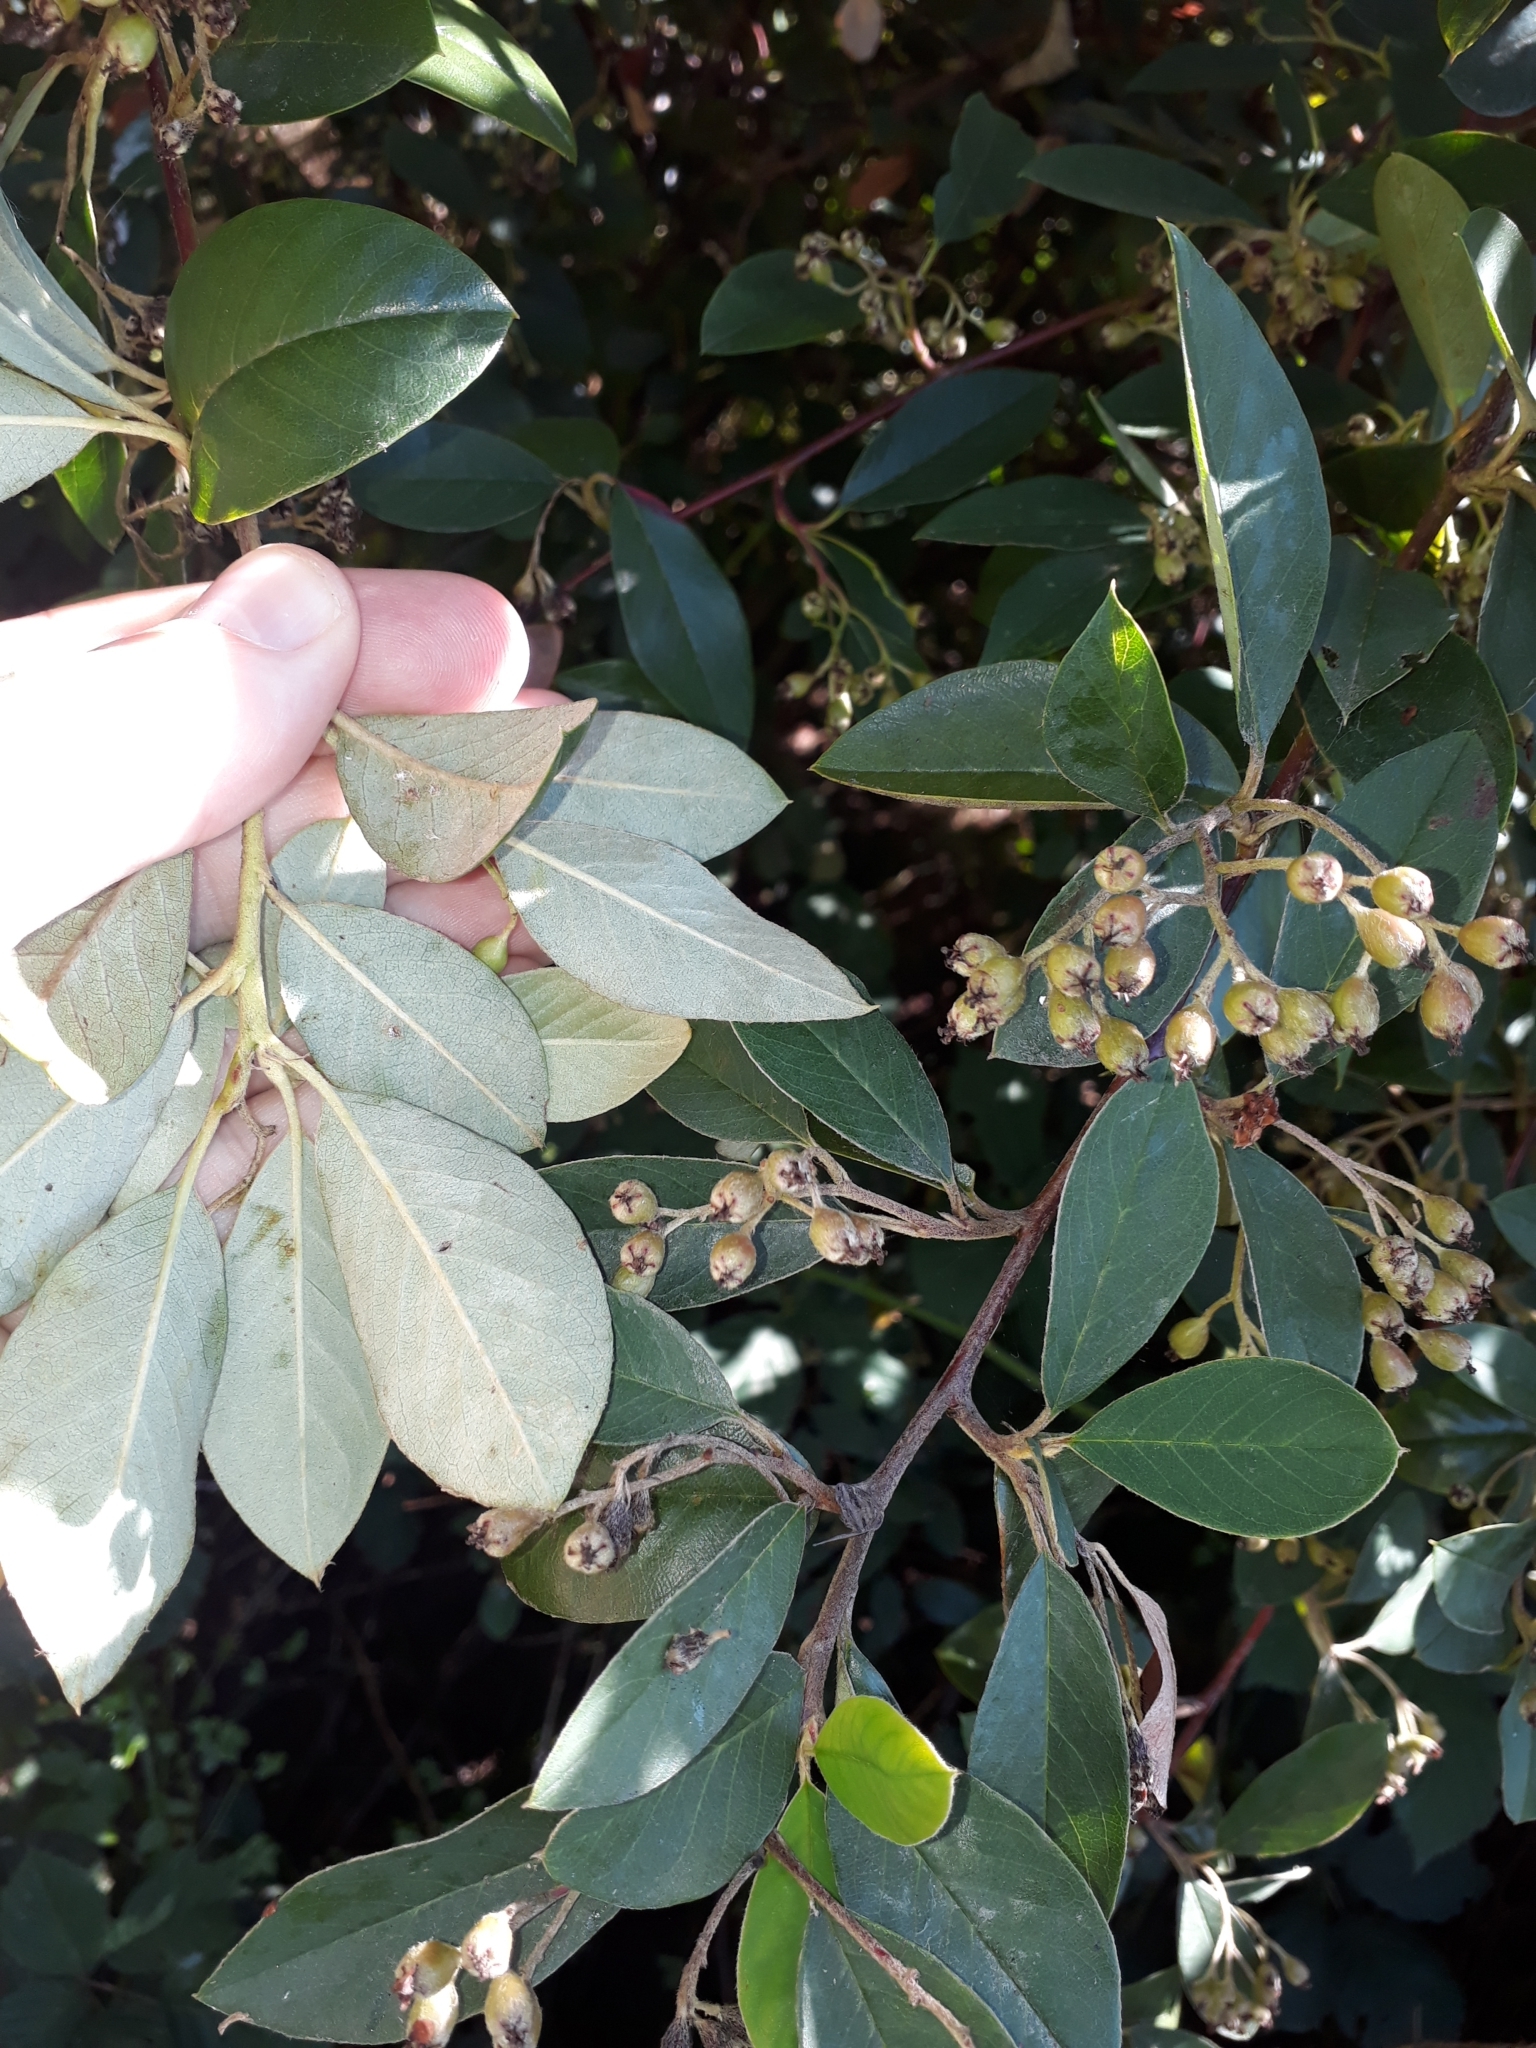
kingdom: Plantae
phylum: Tracheophyta
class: Magnoliopsida
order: Rosales
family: Rosaceae
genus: Cotoneaster
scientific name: Cotoneaster glaucophyllus
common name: Glaucous cotoneaster
